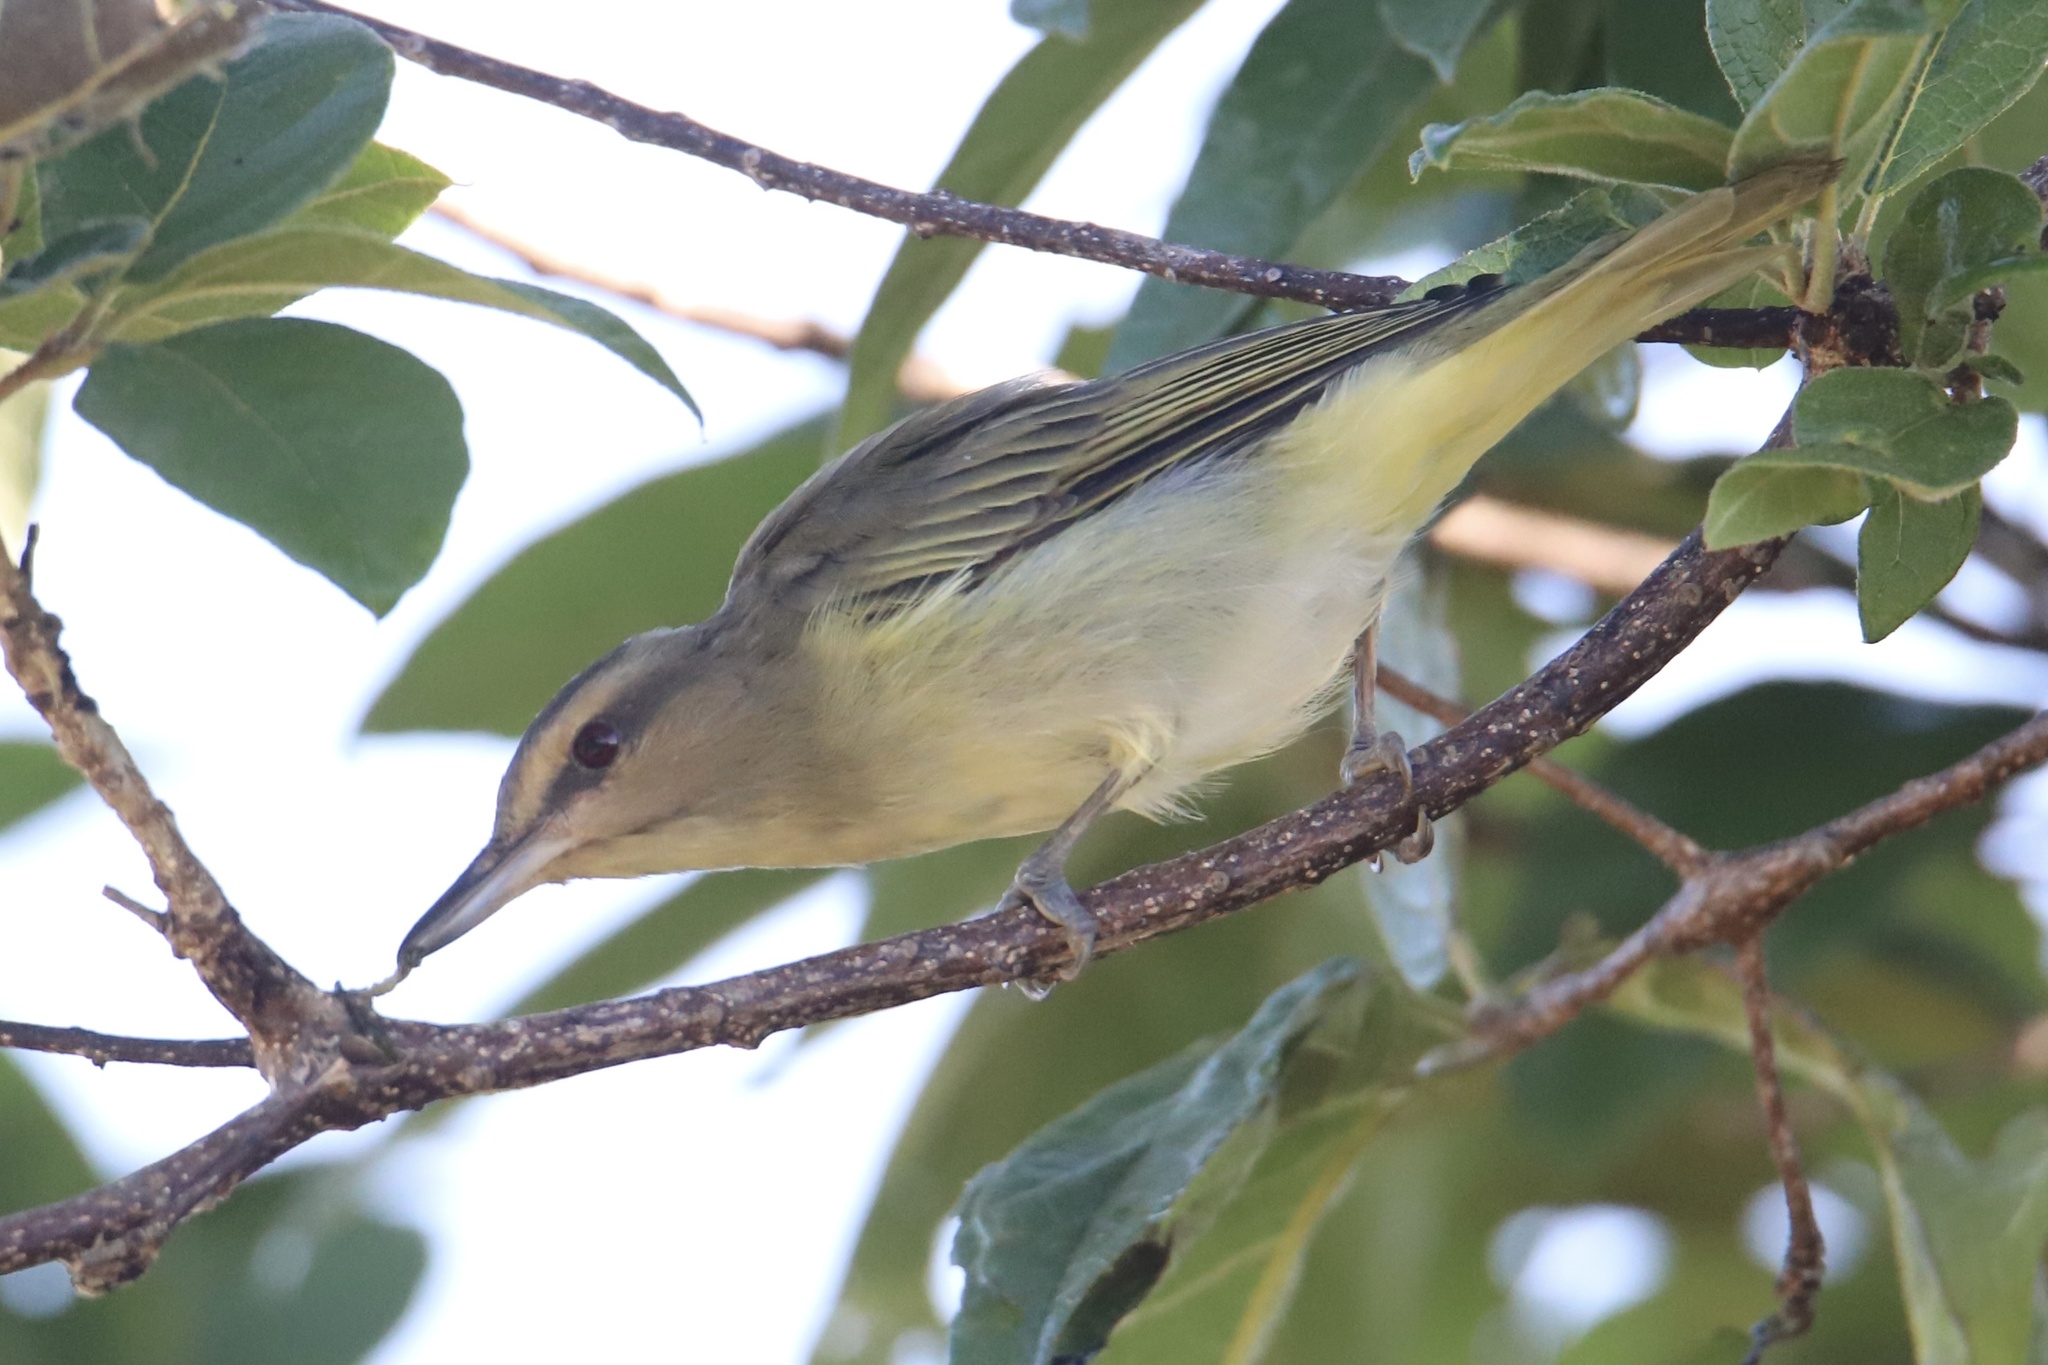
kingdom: Animalia
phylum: Chordata
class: Aves
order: Passeriformes
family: Vireonidae
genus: Vireo
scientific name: Vireo altiloquus
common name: Black-whiskered vireo
